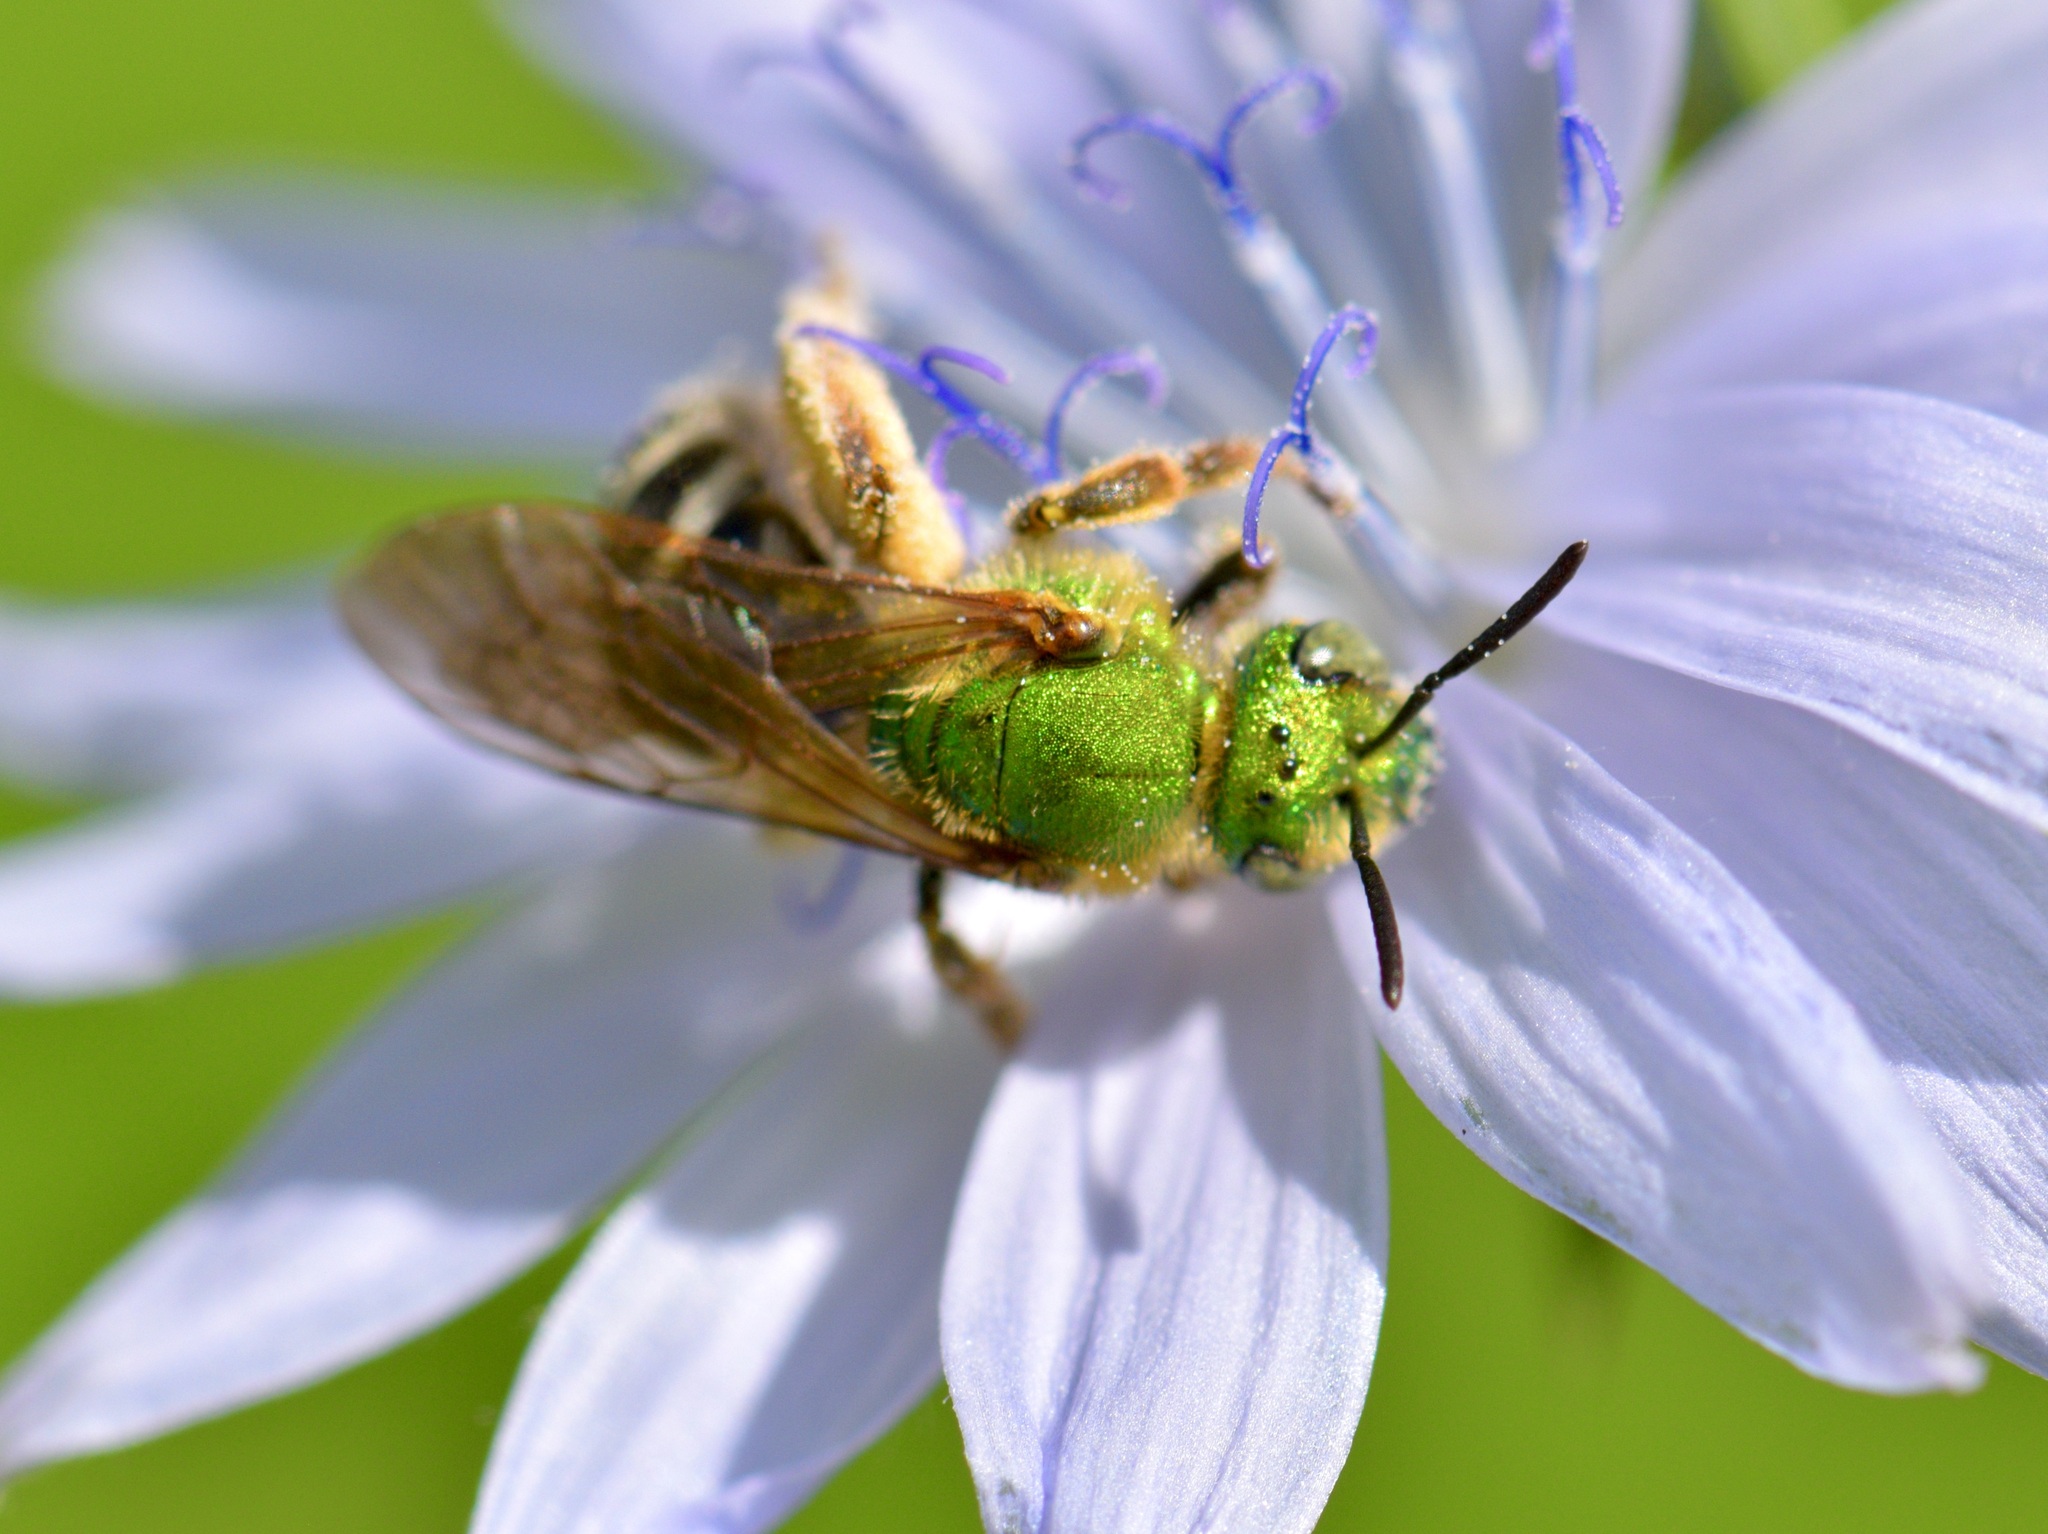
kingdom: Animalia
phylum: Arthropoda
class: Insecta
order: Hymenoptera
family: Halictidae
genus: Agapostemon
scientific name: Agapostemon virescens
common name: Bicolored striped sweat bee
